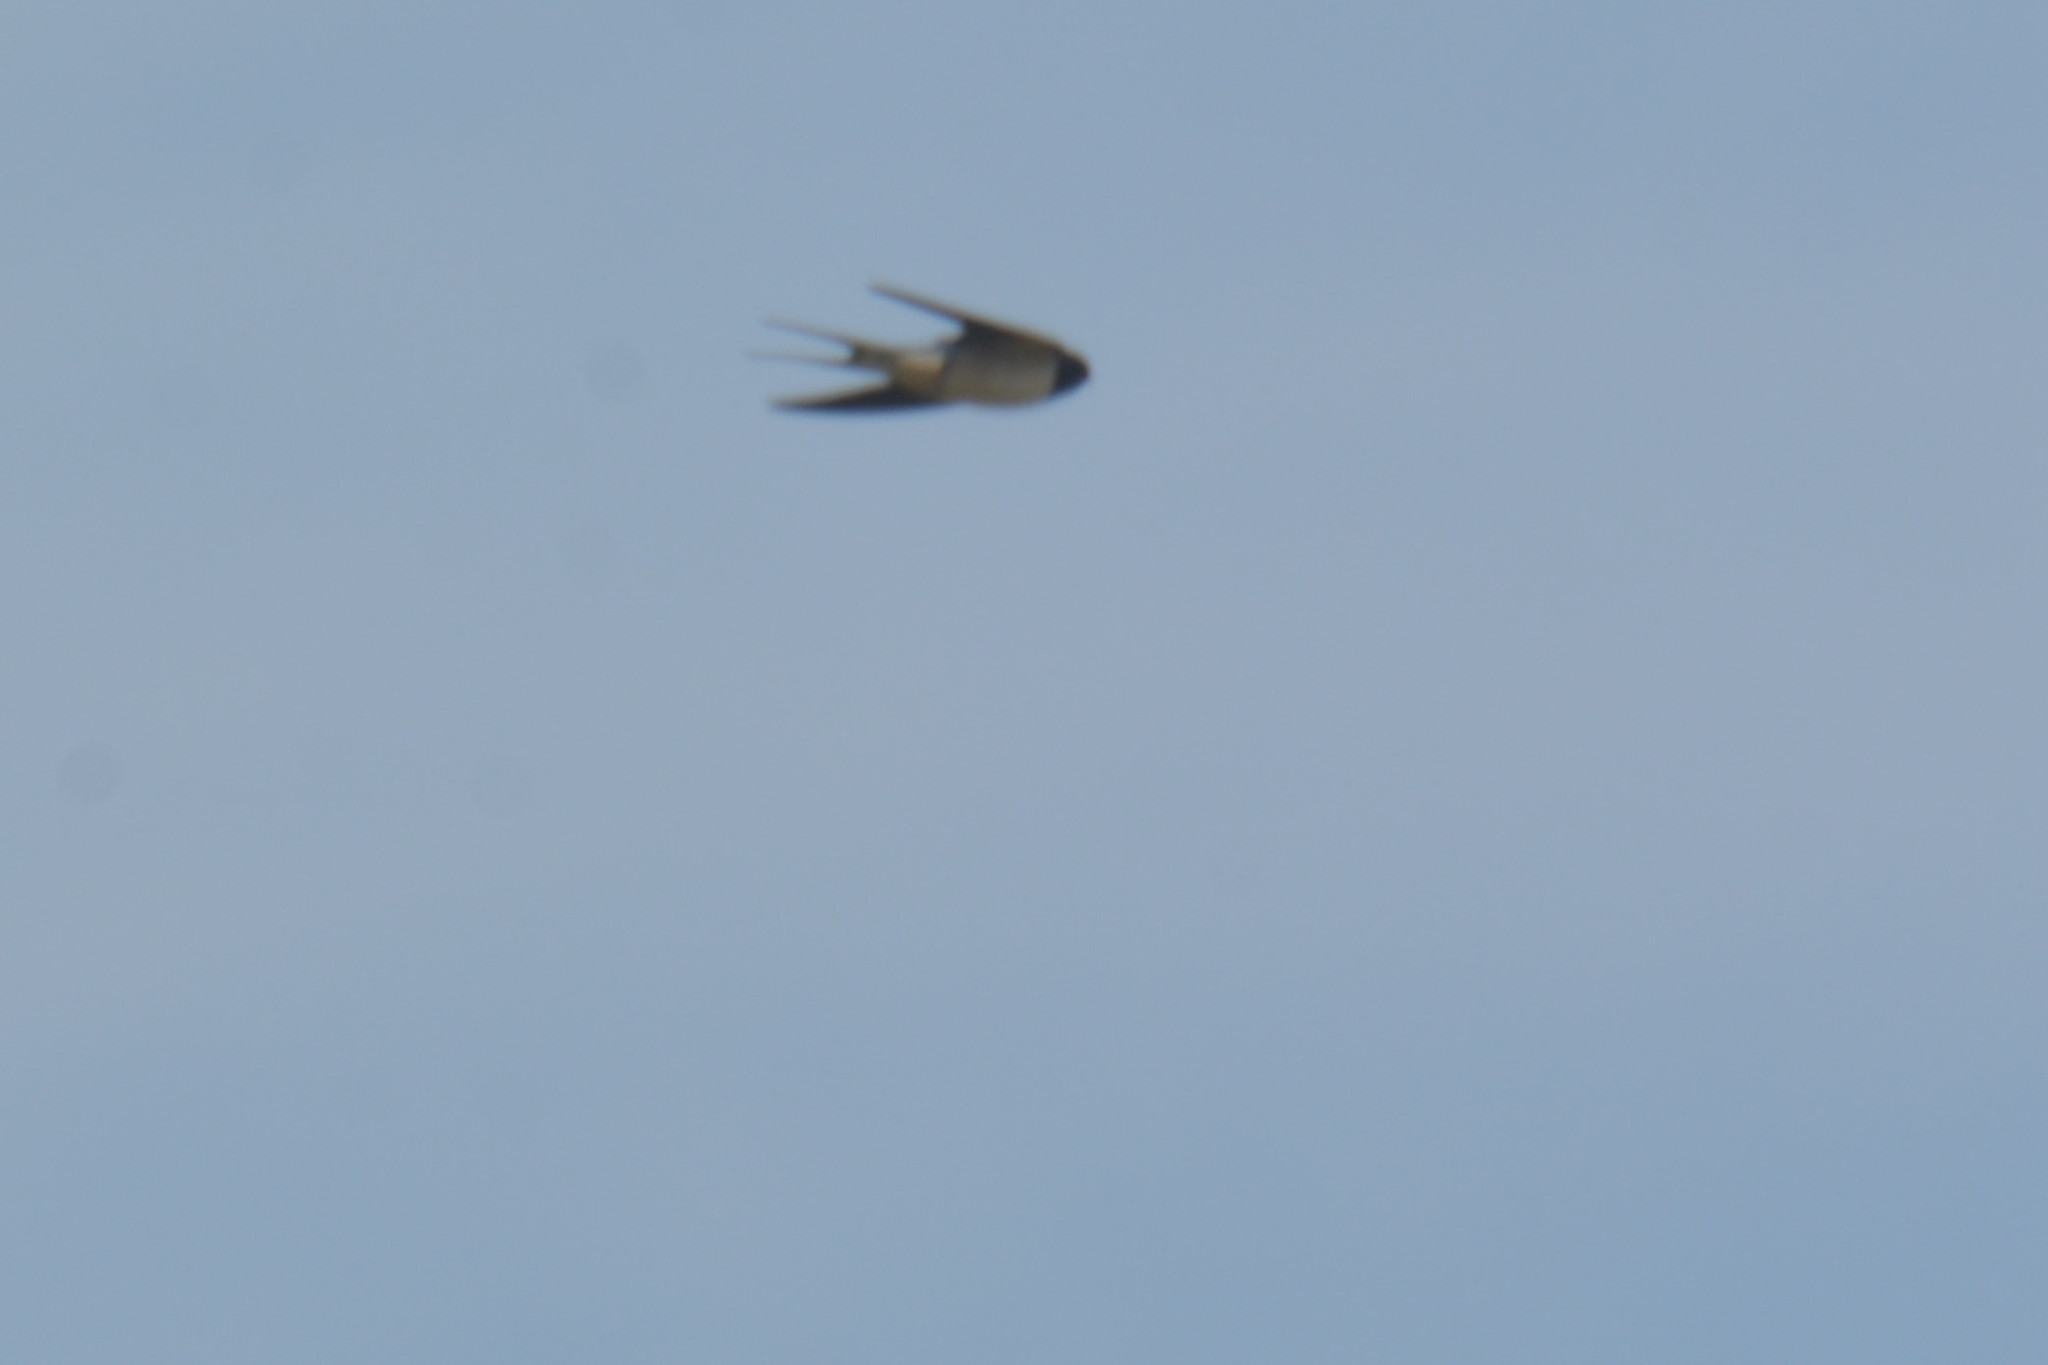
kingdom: Animalia
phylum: Chordata
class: Aves
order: Passeriformes
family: Hirundinidae
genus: Hirundo
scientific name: Hirundo rustica
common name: Barn swallow
